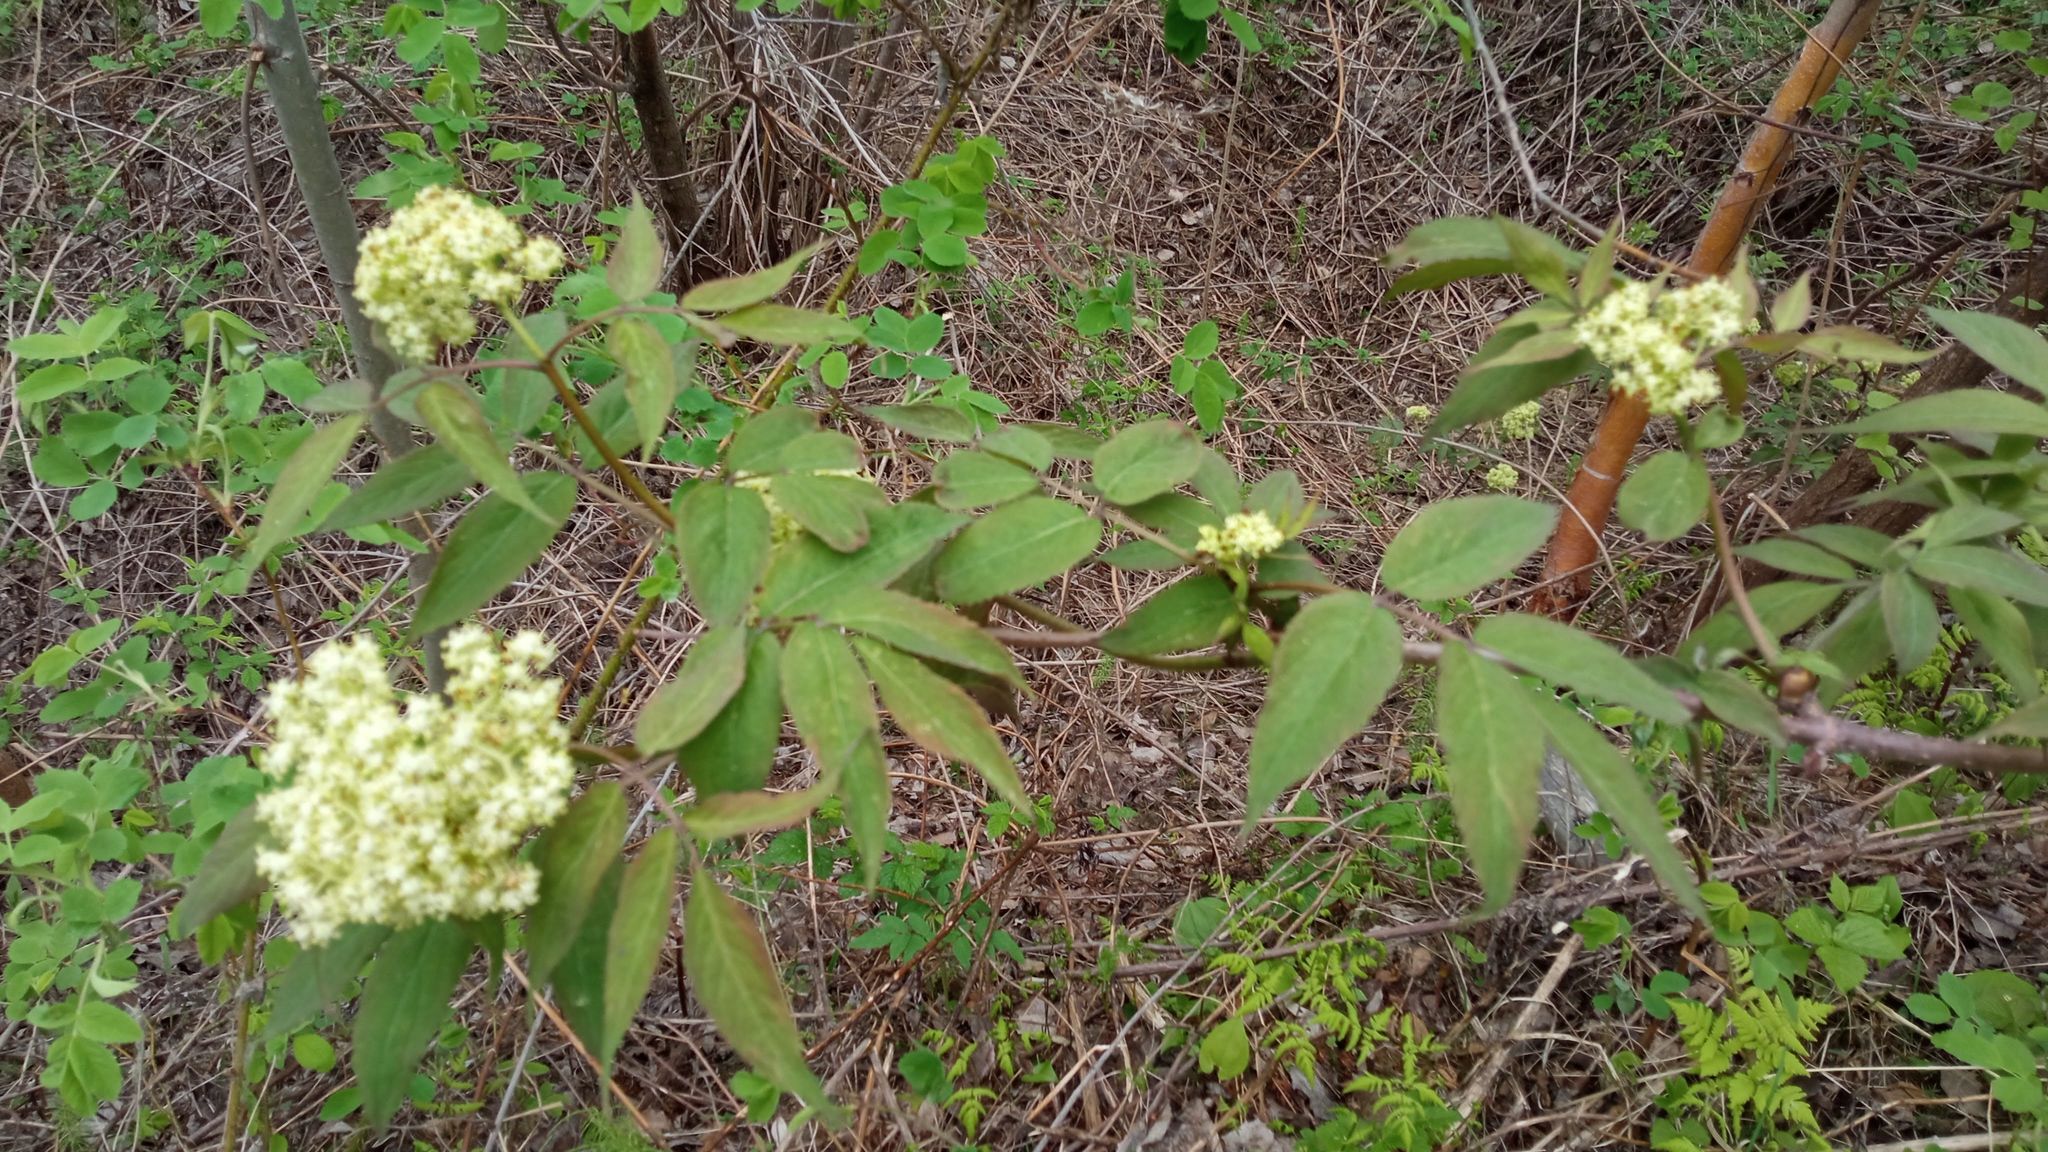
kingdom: Plantae
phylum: Tracheophyta
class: Magnoliopsida
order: Dipsacales
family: Viburnaceae
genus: Sambucus
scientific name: Sambucus sibirica
